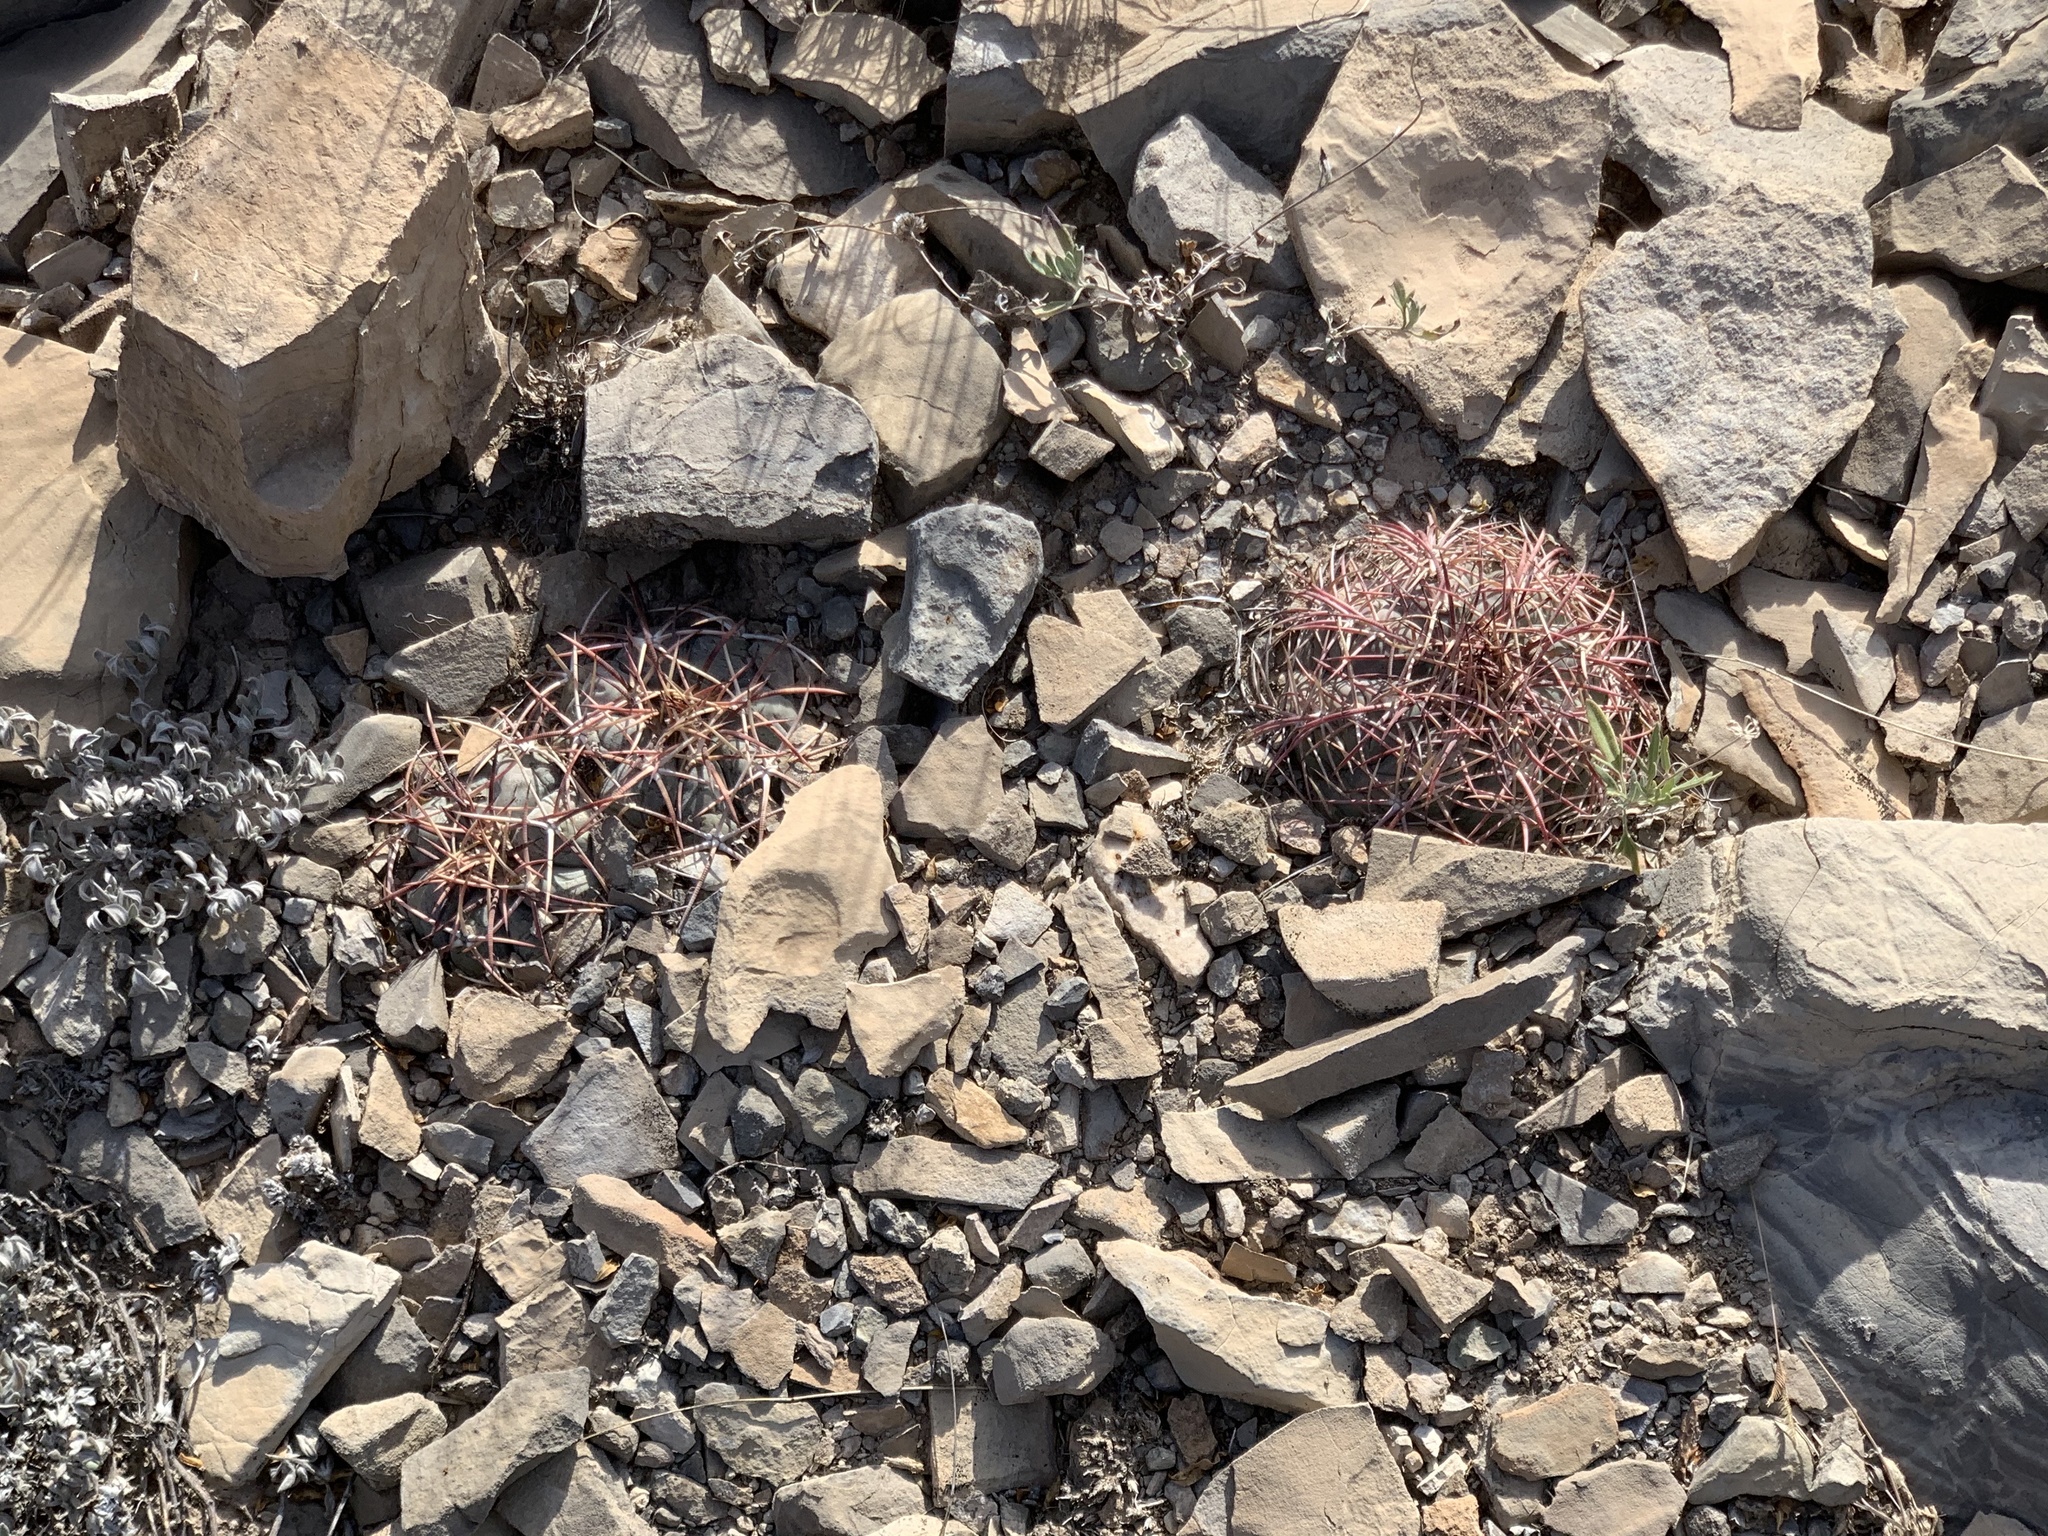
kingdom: Plantae
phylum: Tracheophyta
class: Magnoliopsida
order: Caryophyllales
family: Cactaceae
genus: Echinocactus
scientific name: Echinocactus horizonthalonius
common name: Devilshead
